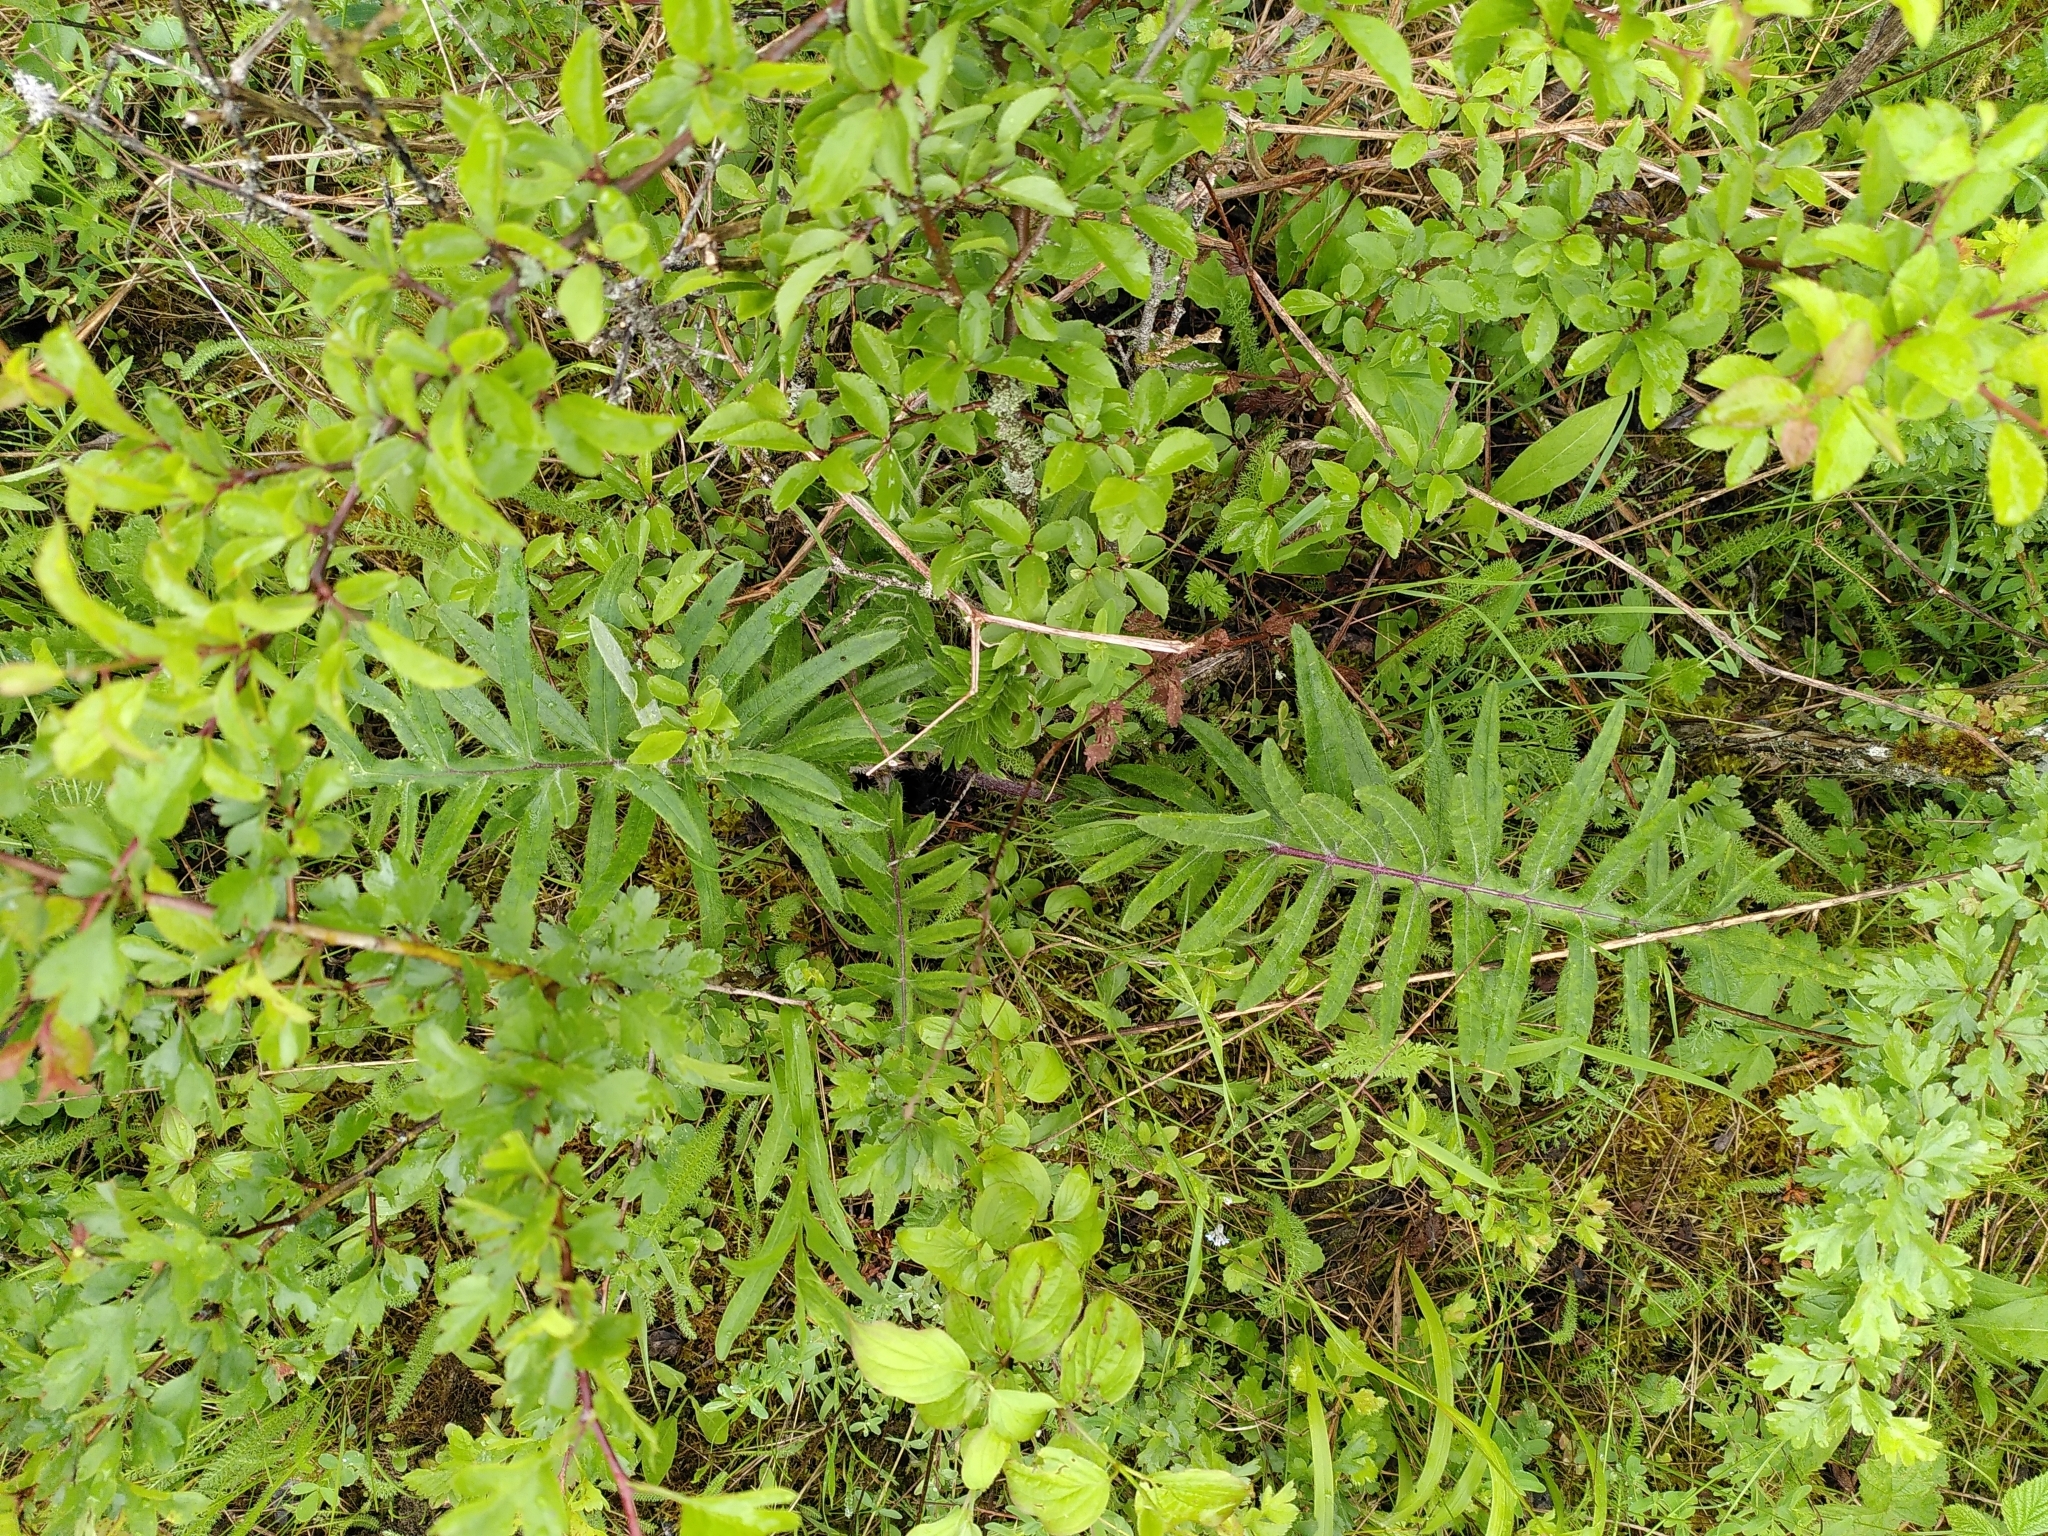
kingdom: Plantae
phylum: Tracheophyta
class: Magnoliopsida
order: Asterales
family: Asteraceae
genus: Lophiolepis
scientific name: Lophiolepis eriophora
